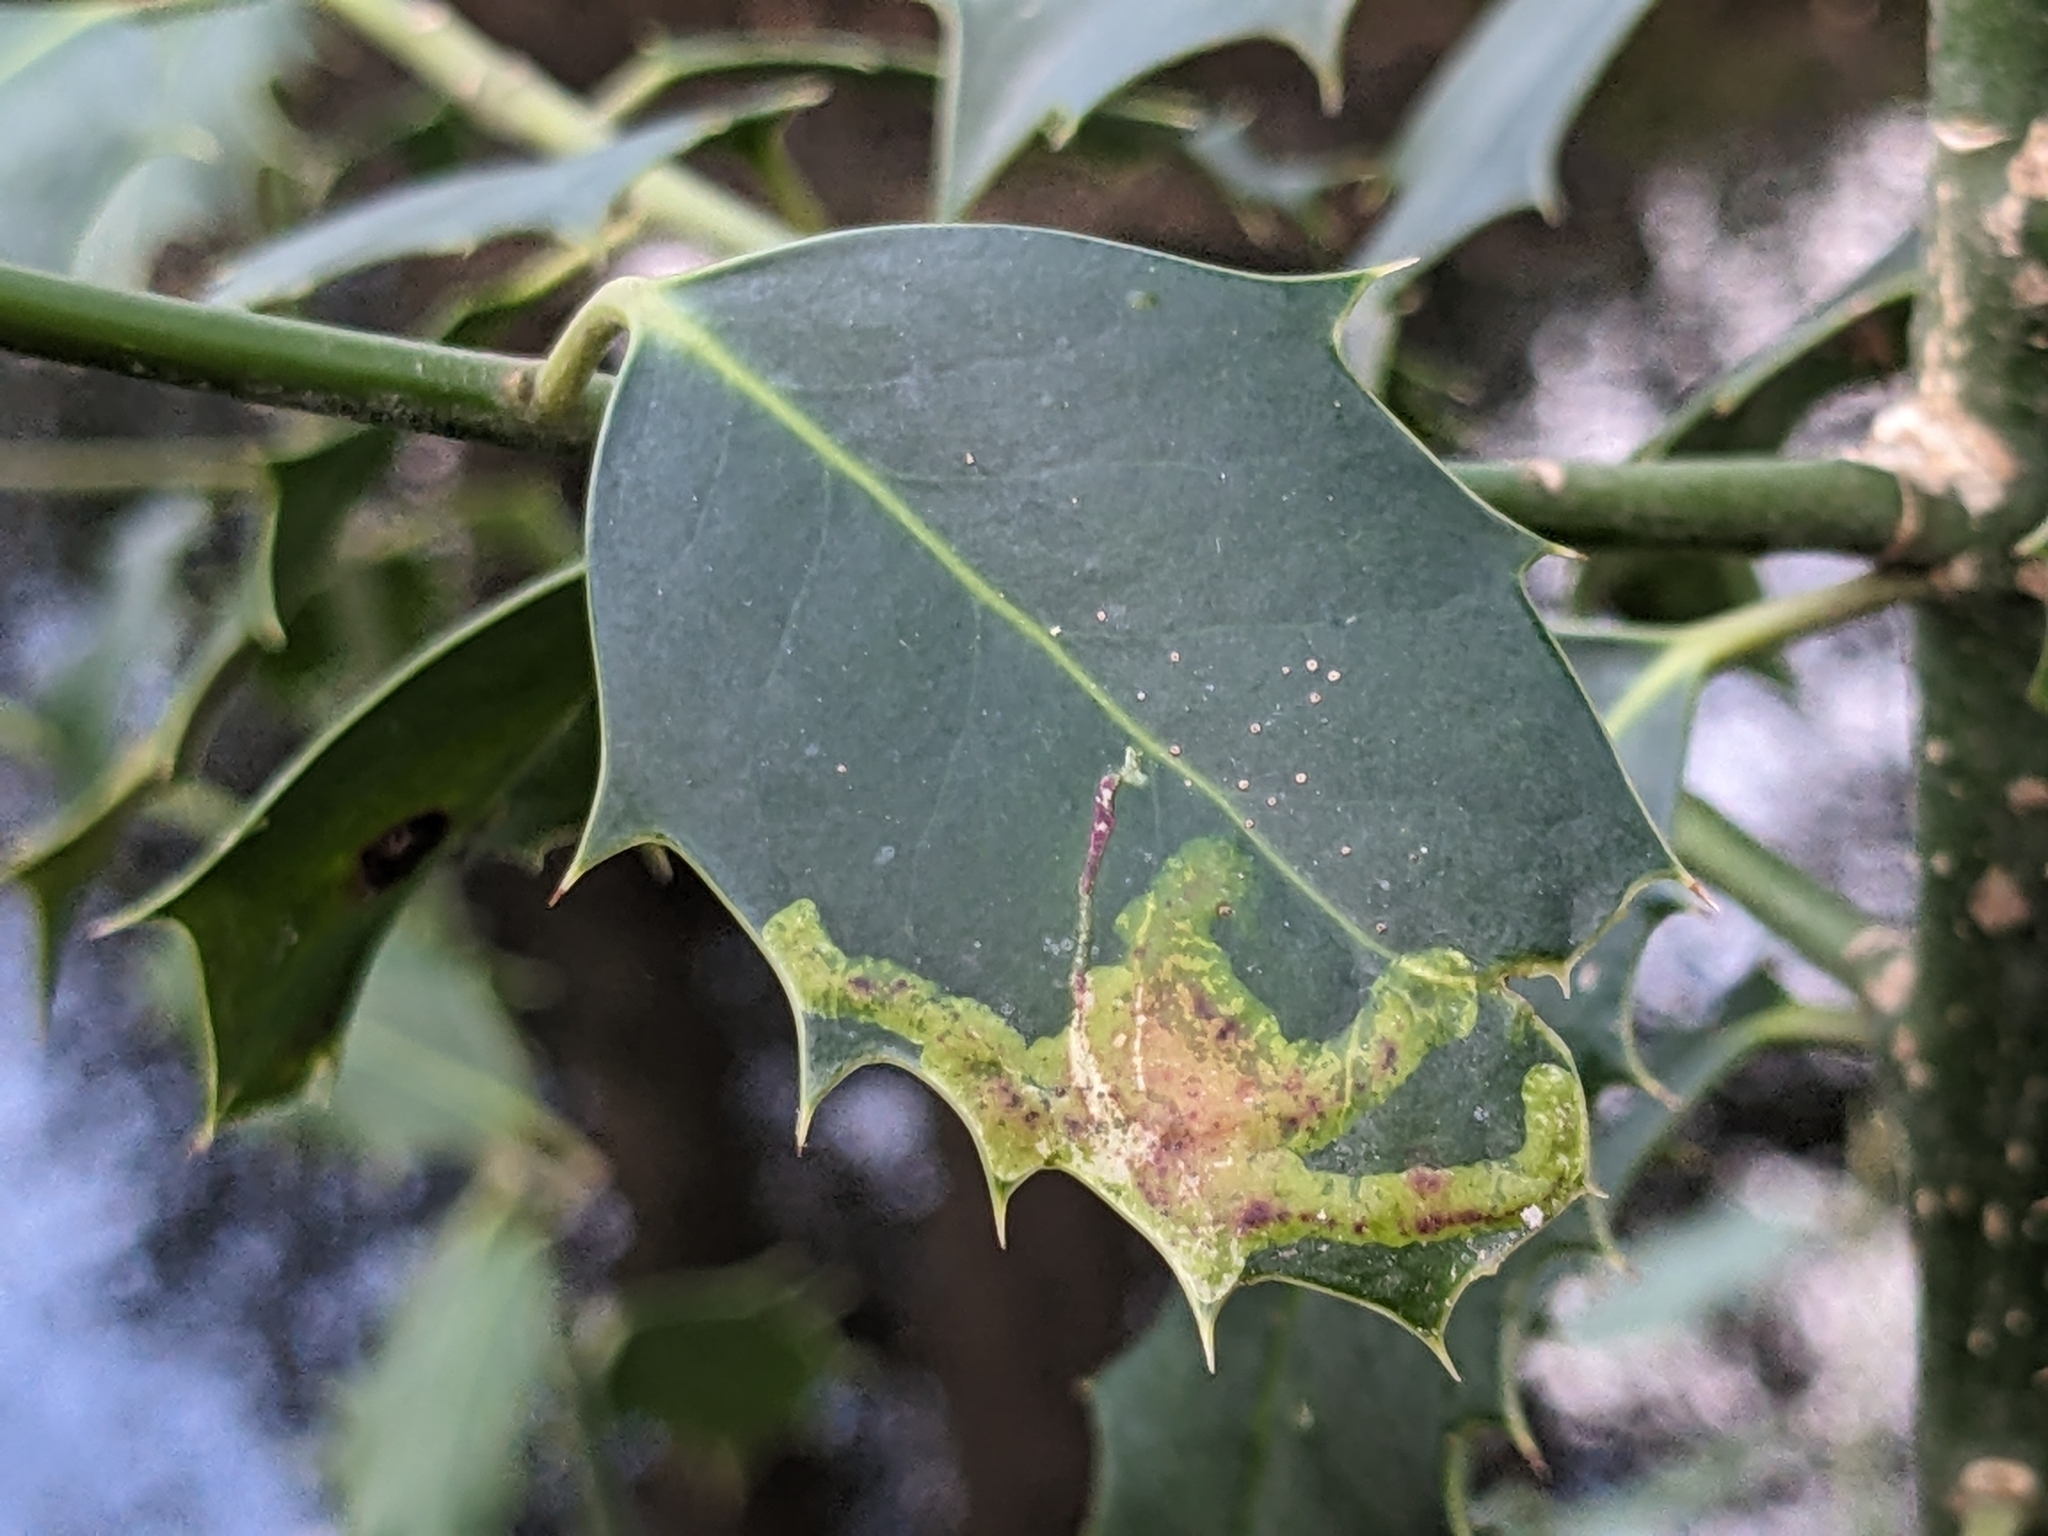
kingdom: Plantae
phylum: Tracheophyta
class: Magnoliopsida
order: Aquifoliales
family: Aquifoliaceae
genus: Ilex
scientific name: Ilex aquifolium
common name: English holly
